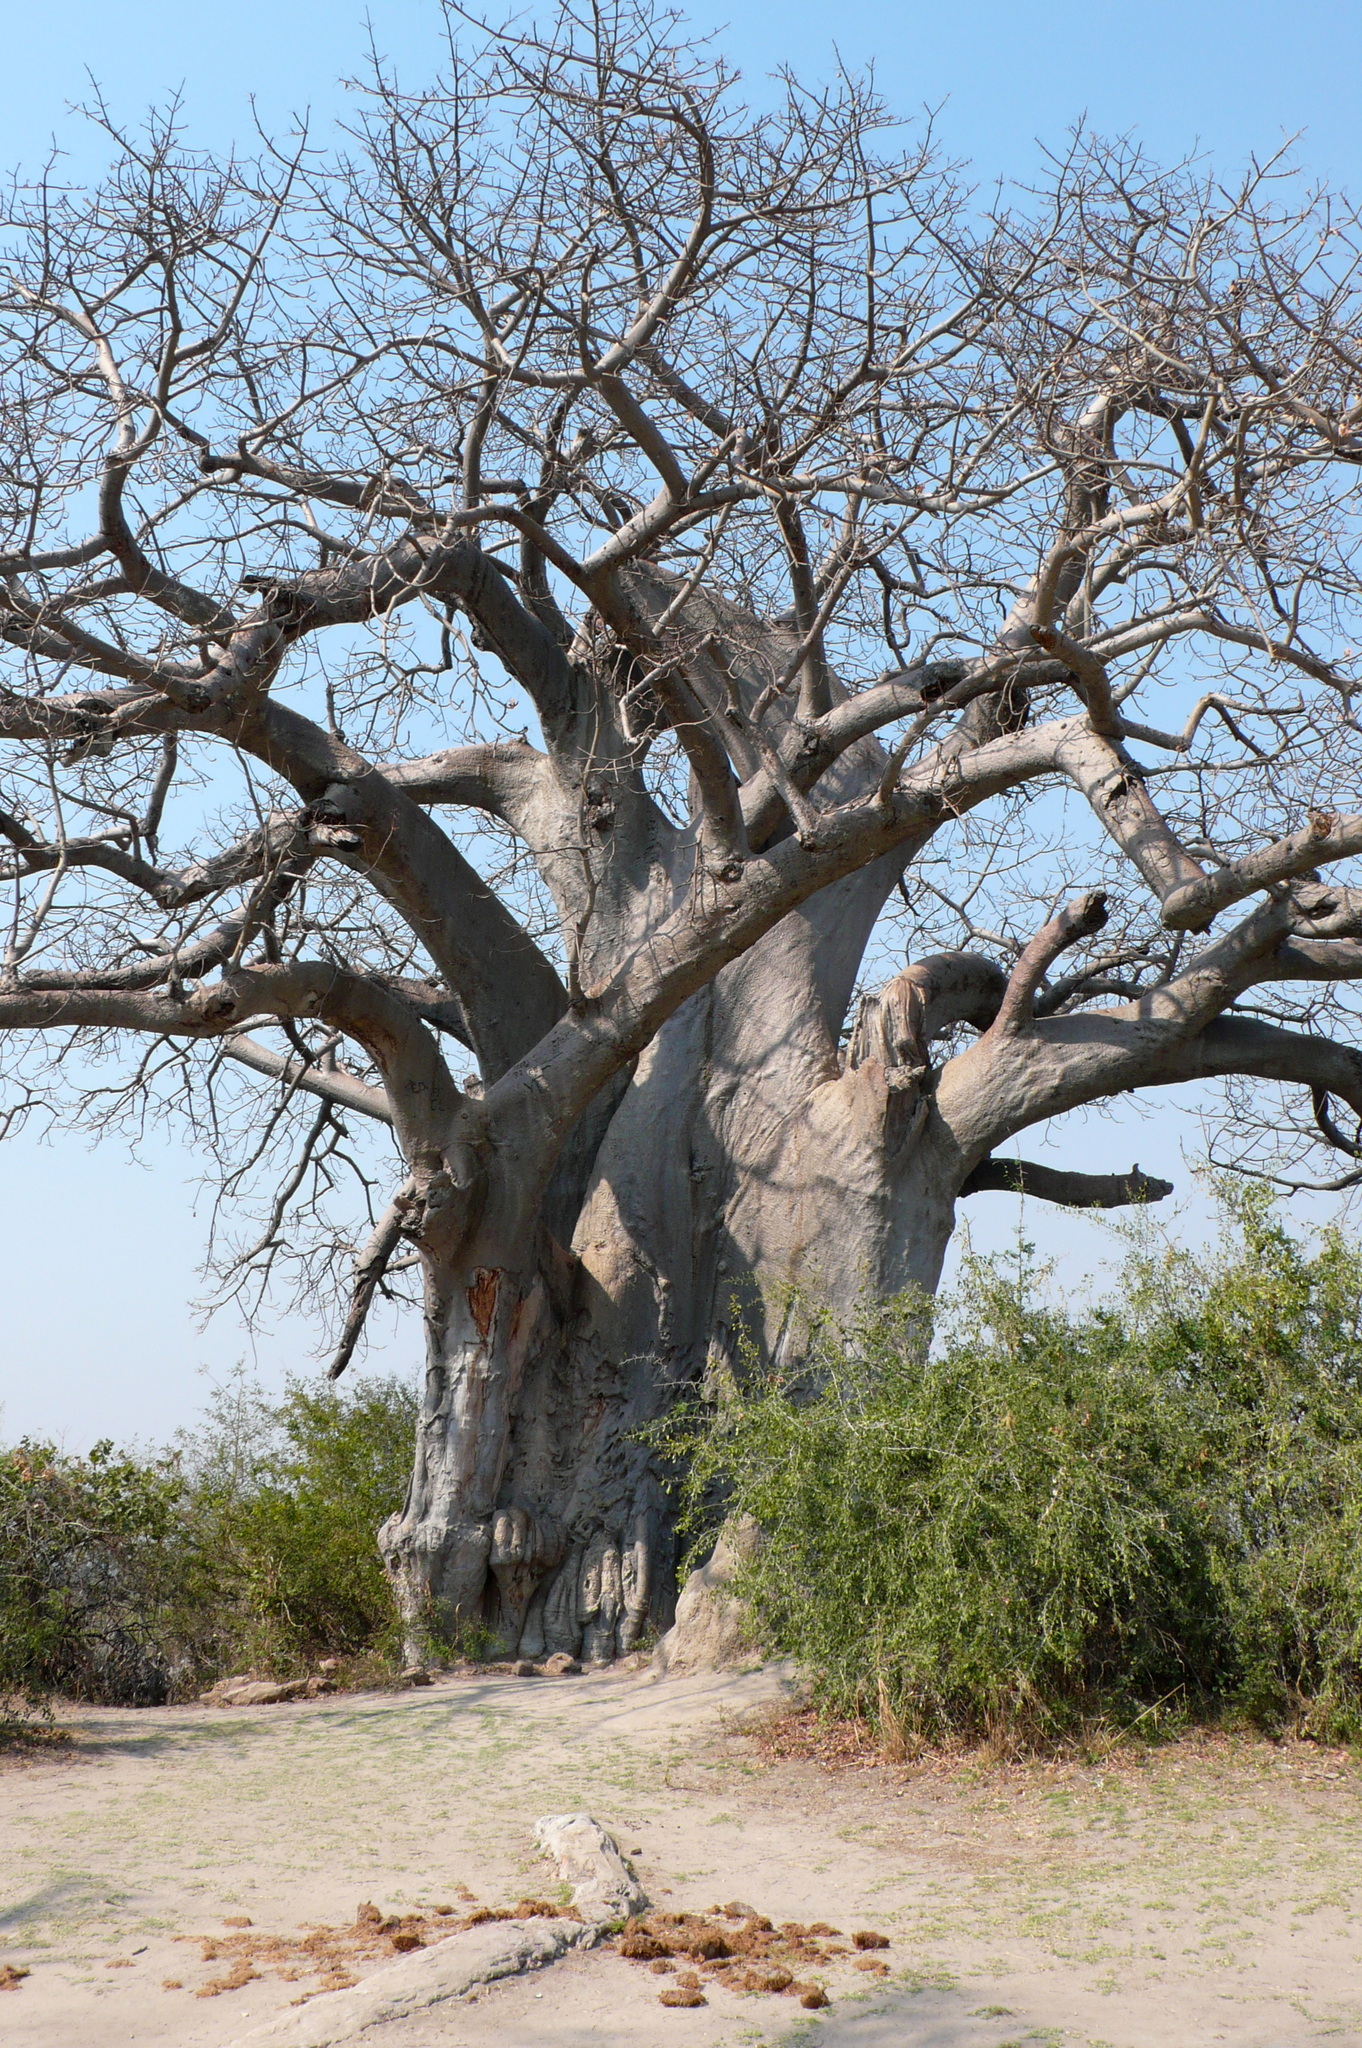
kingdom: Plantae
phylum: Tracheophyta
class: Magnoliopsida
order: Malvales
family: Malvaceae
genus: Adansonia
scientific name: Adansonia digitata
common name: Dead-rat-tree
